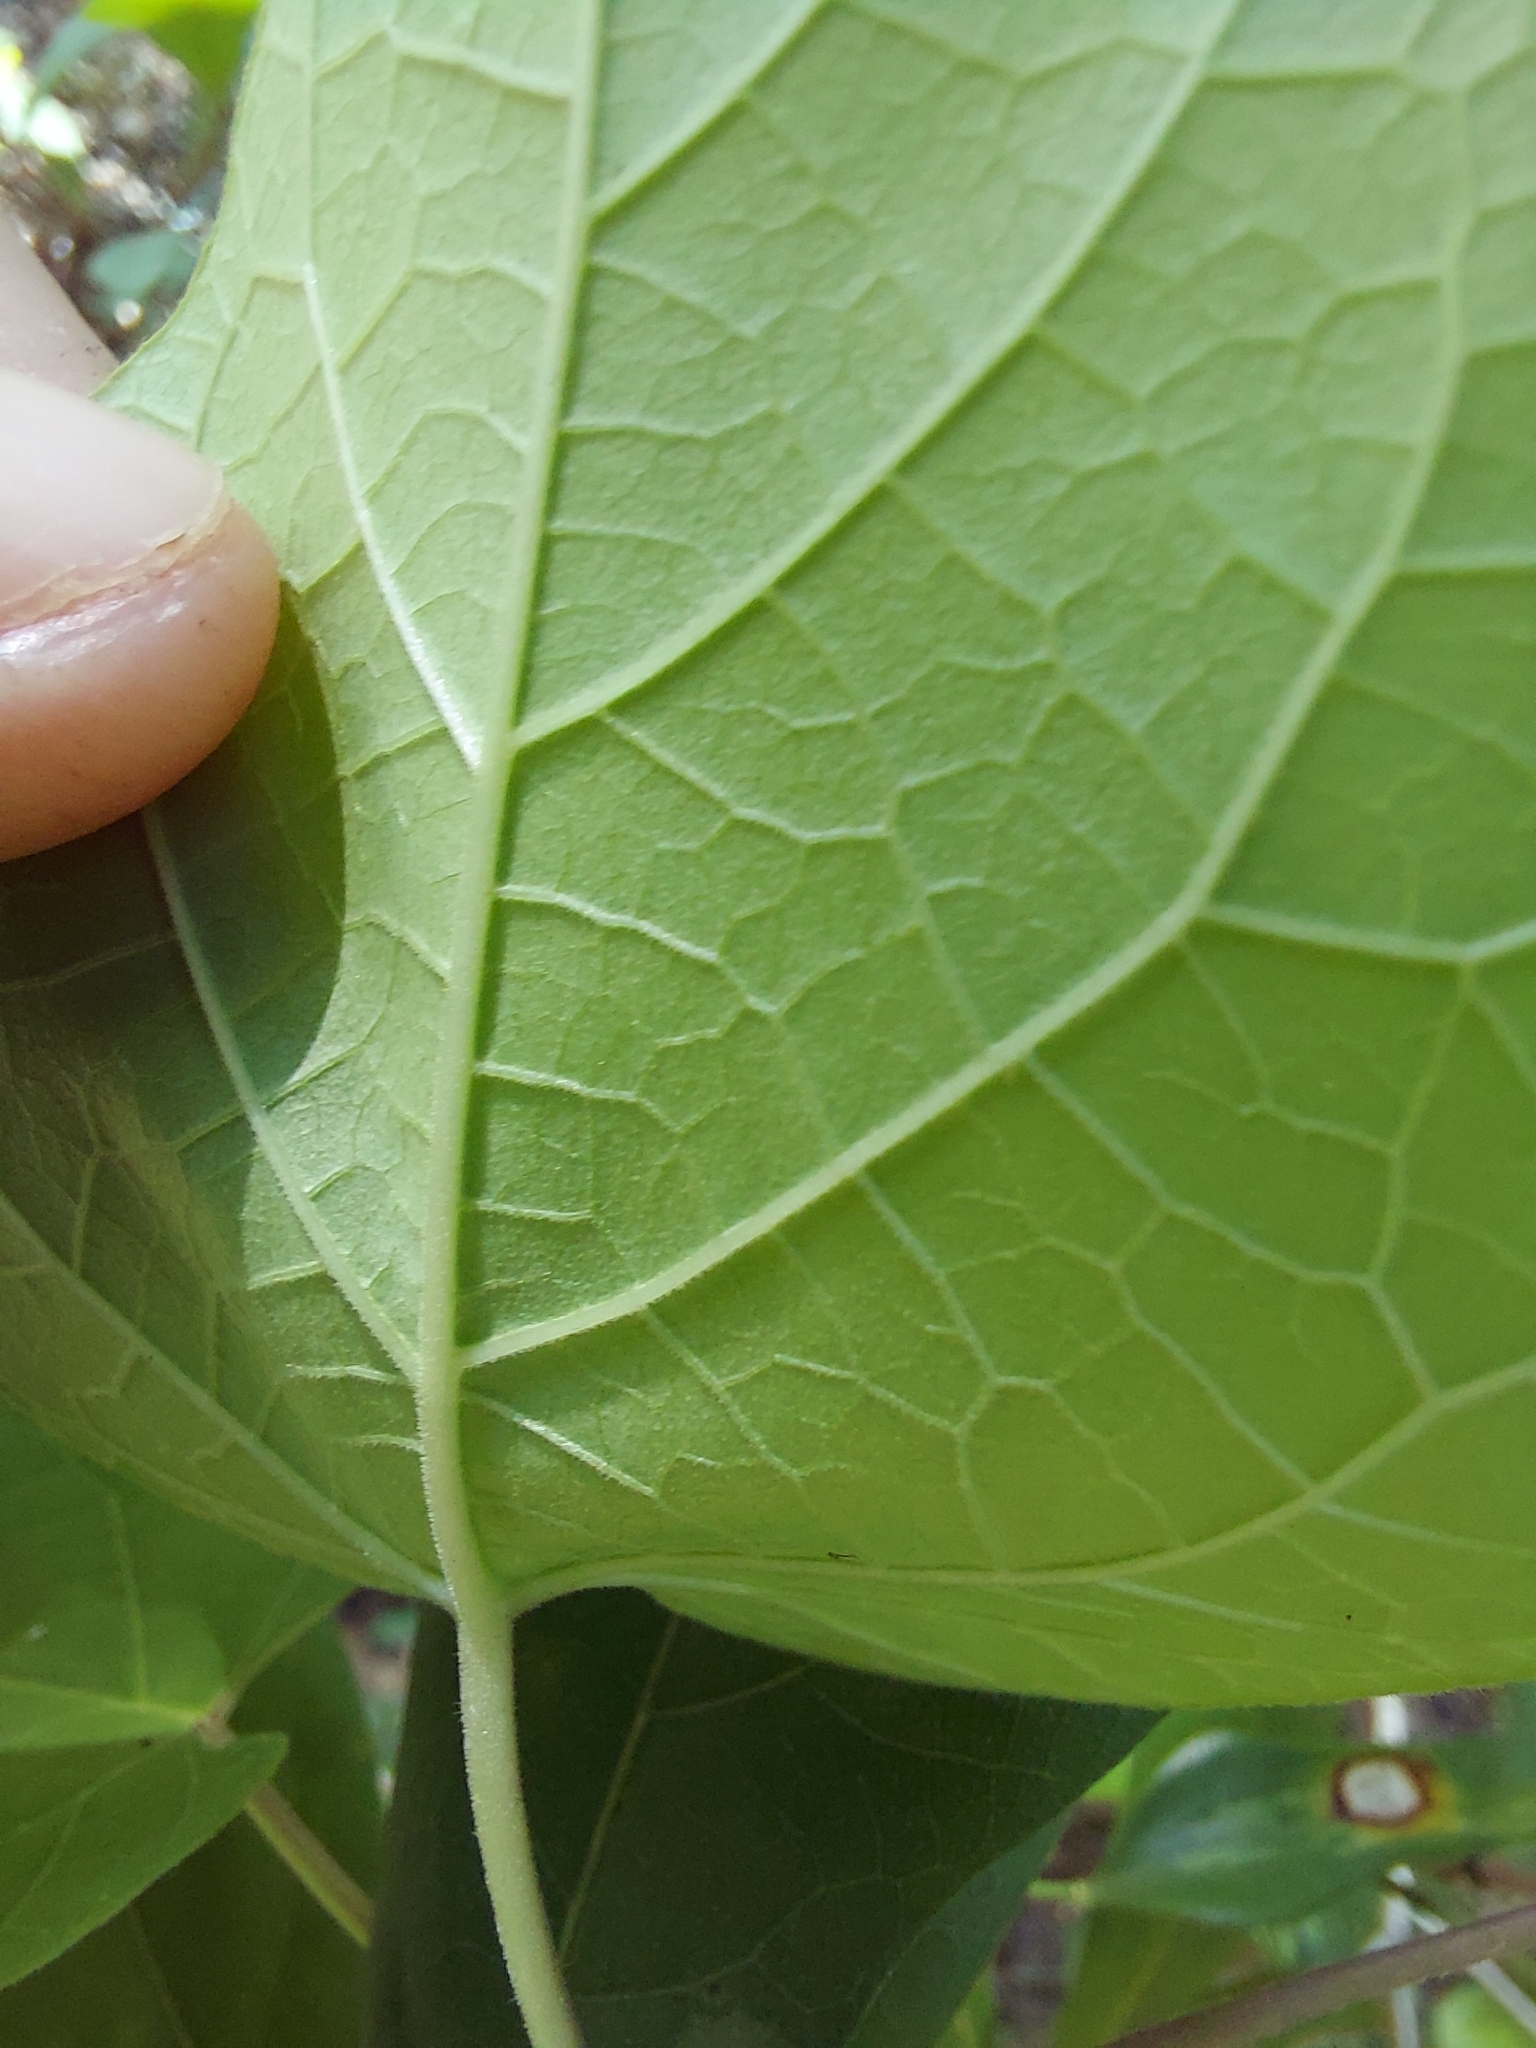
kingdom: Plantae
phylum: Tracheophyta
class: Magnoliopsida
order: Gentianales
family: Apocynaceae
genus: Matelea
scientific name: Matelea floridana
